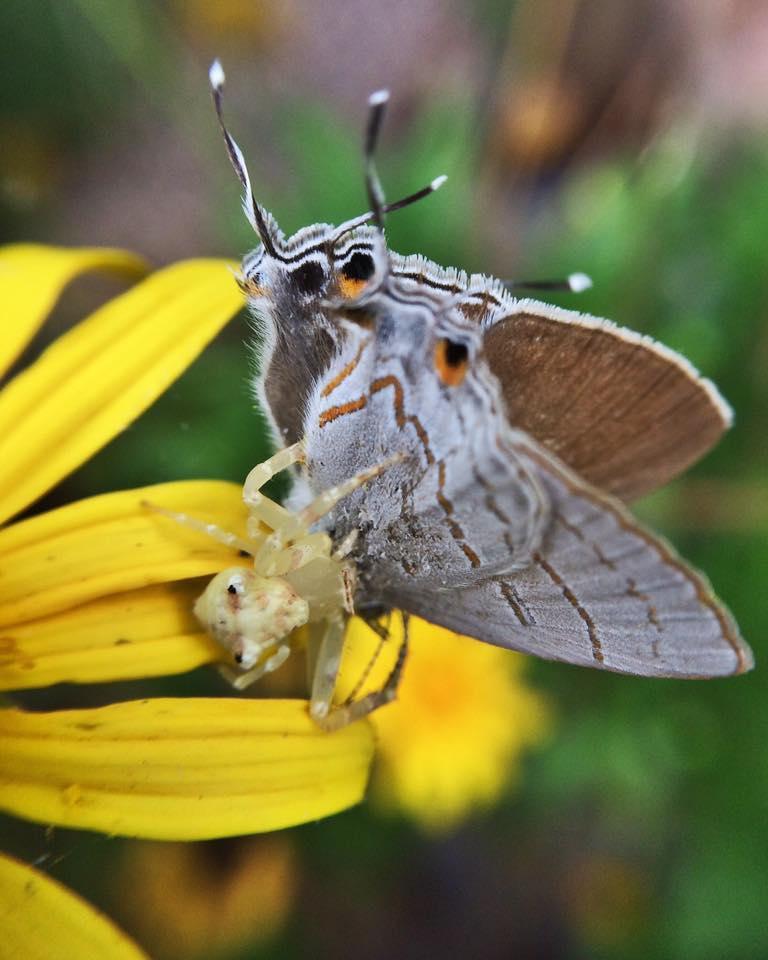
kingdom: Animalia
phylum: Arthropoda
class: Insecta
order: Lepidoptera
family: Lycaenidae
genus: Hypolycaena
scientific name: Hypolycaena philippus
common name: Common hairstreak
